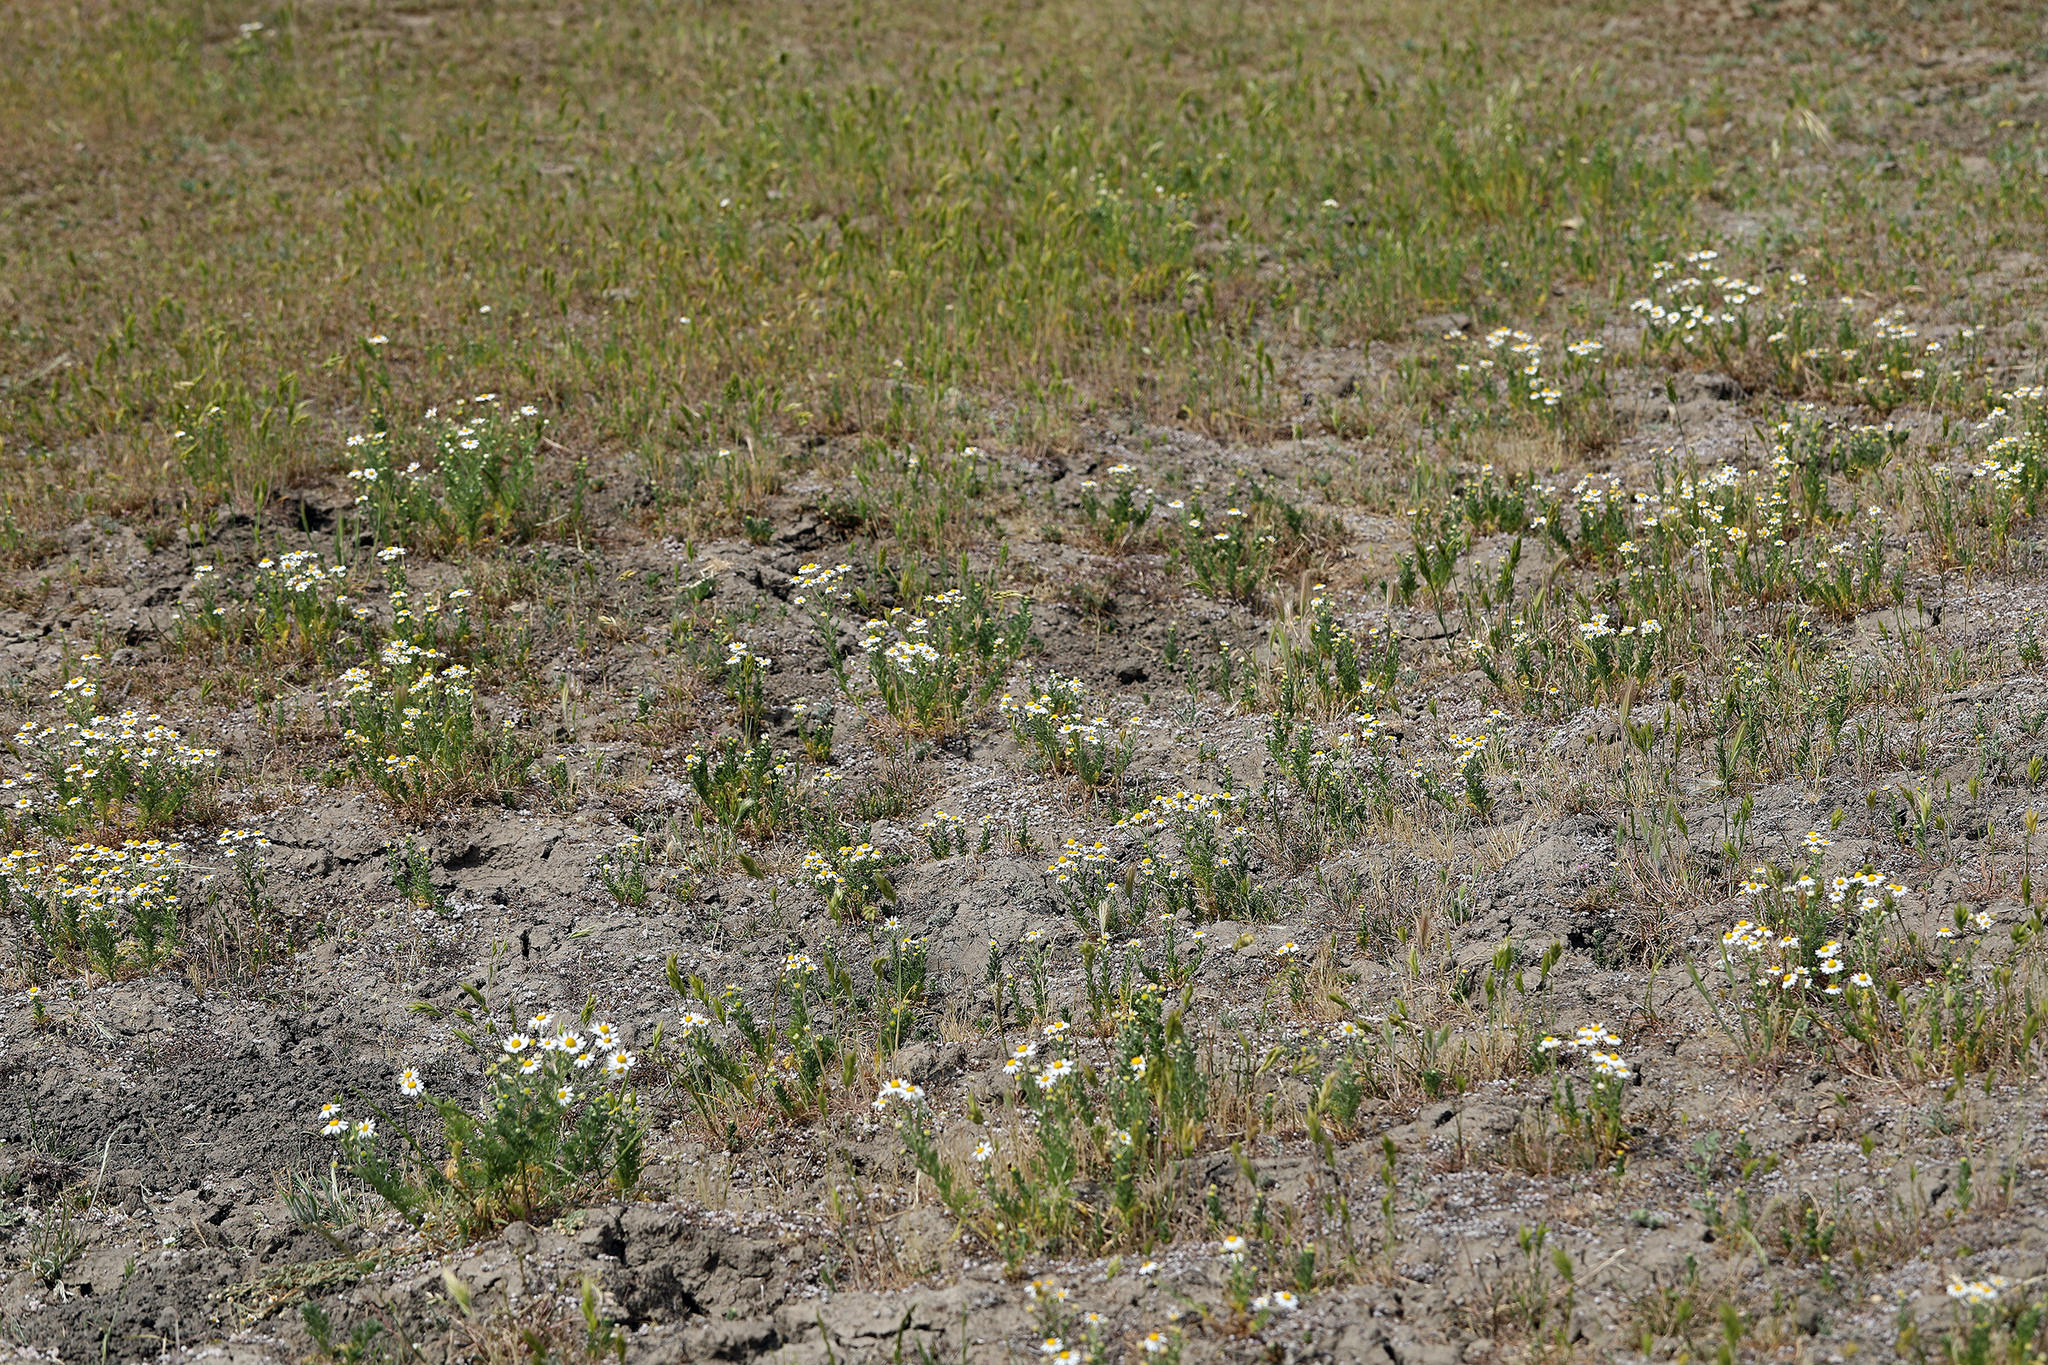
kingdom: Plantae
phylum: Tracheophyta
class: Magnoliopsida
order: Asterales
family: Asteraceae
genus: Anthemis
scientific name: Anthemis cotula
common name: Stinking chamomile
